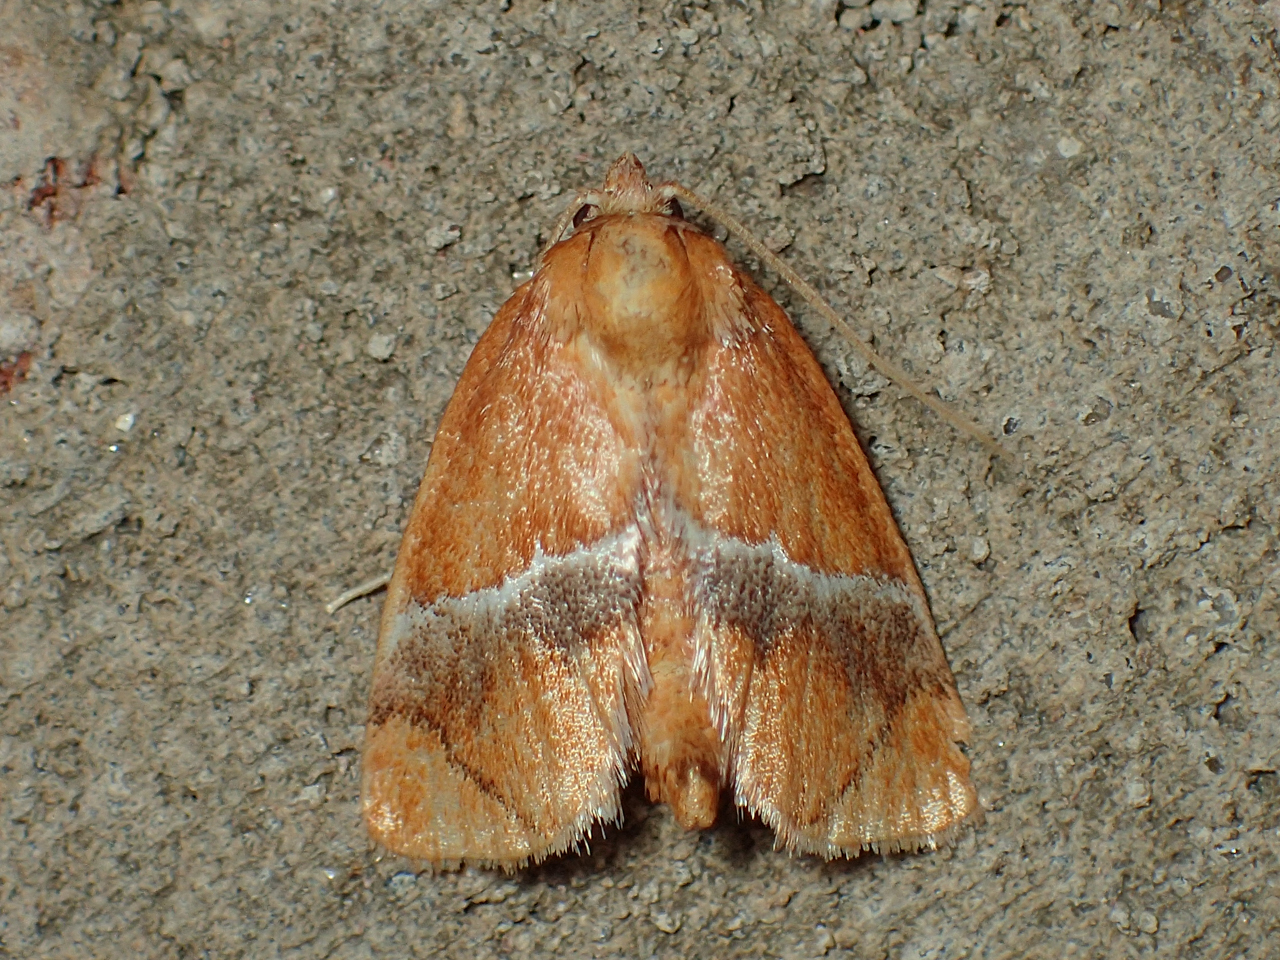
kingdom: Animalia
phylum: Arthropoda
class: Insecta
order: Lepidoptera
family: Limacodidae
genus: Lithacodes
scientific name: Lithacodes fasciola
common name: Yellow-shouldered slug moth
